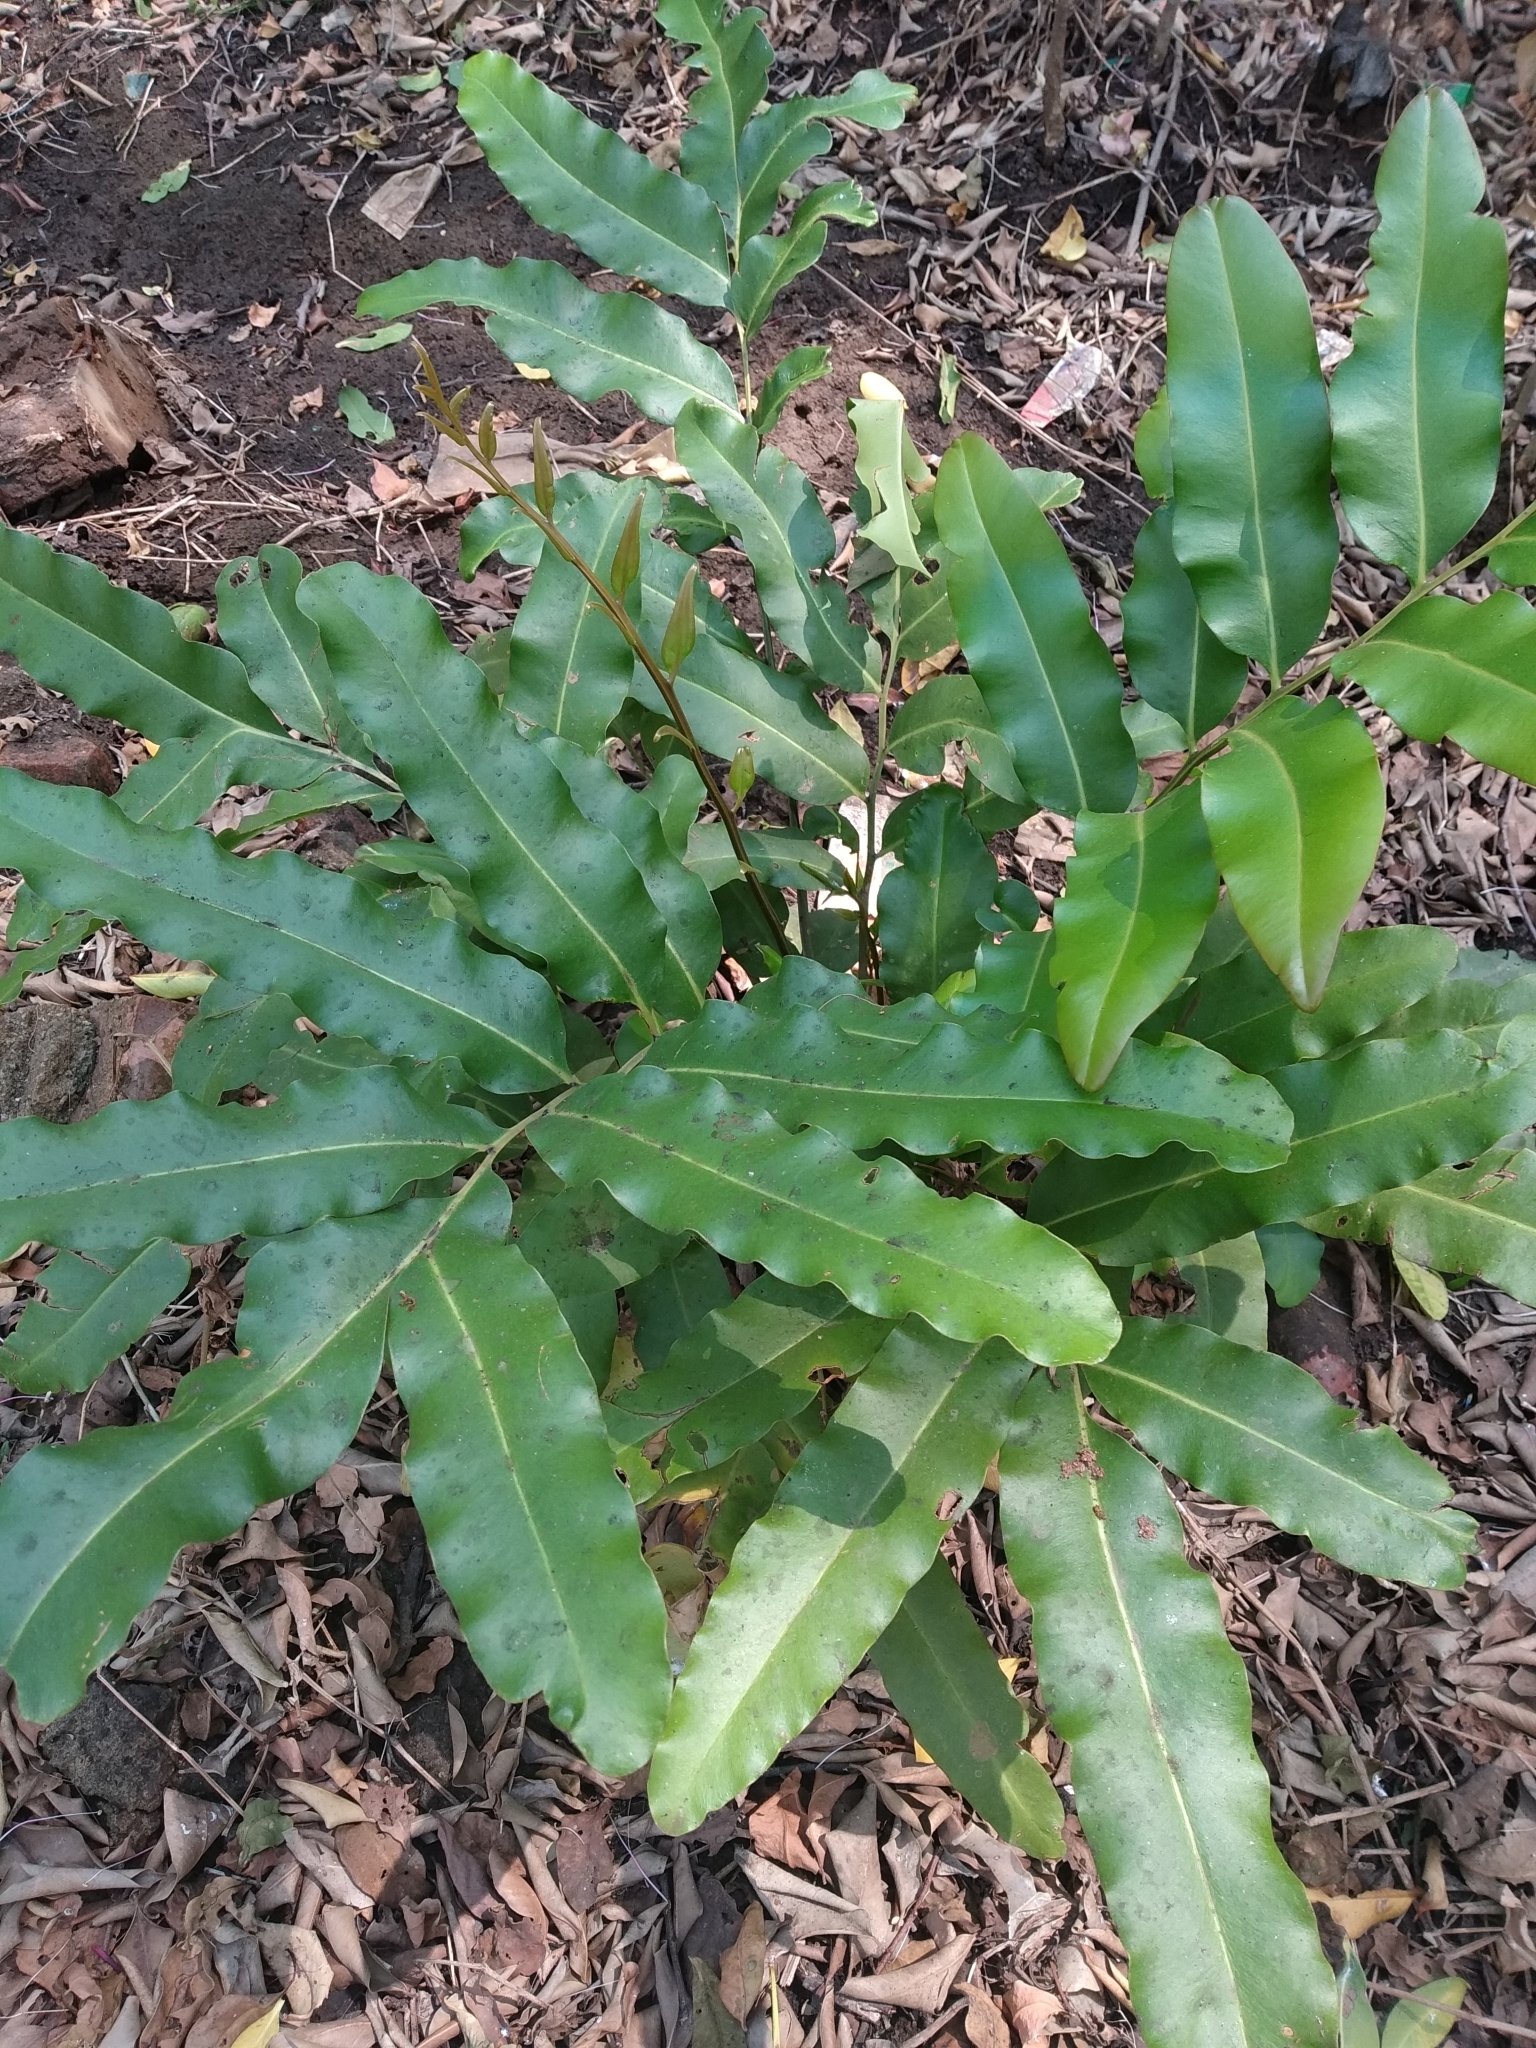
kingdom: Plantae
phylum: Tracheophyta
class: Polypodiopsida
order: Polypodiales
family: Pteridaceae
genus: Acrostichum
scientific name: Acrostichum aureum
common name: Leather fern
